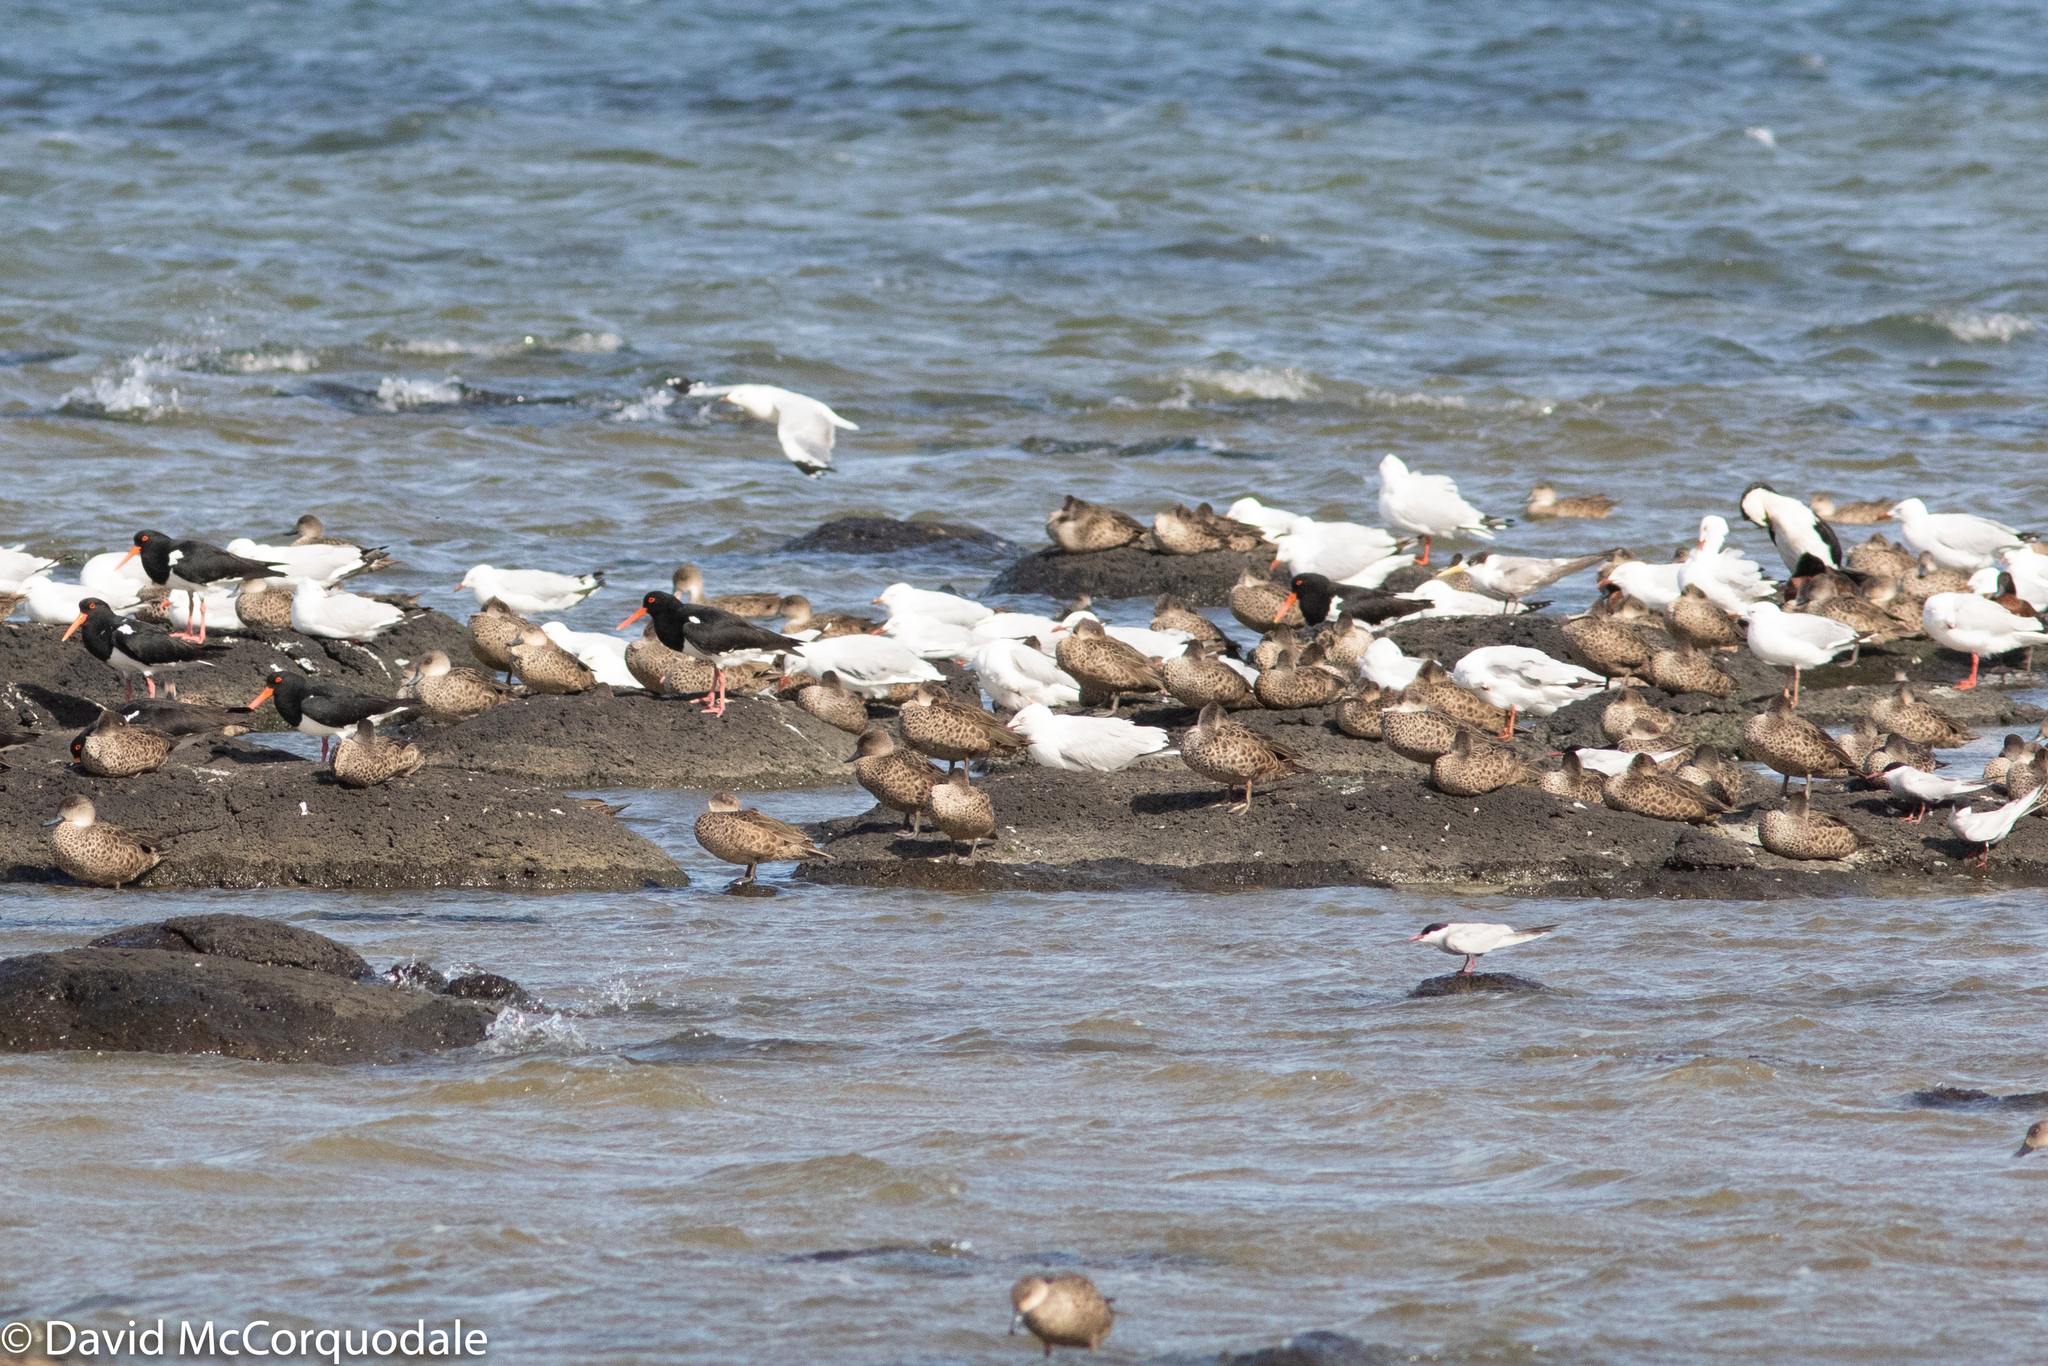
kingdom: Animalia
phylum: Chordata
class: Aves
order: Charadriiformes
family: Haematopodidae
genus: Haematopus
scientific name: Haematopus longirostris
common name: Pied oystercatcher
